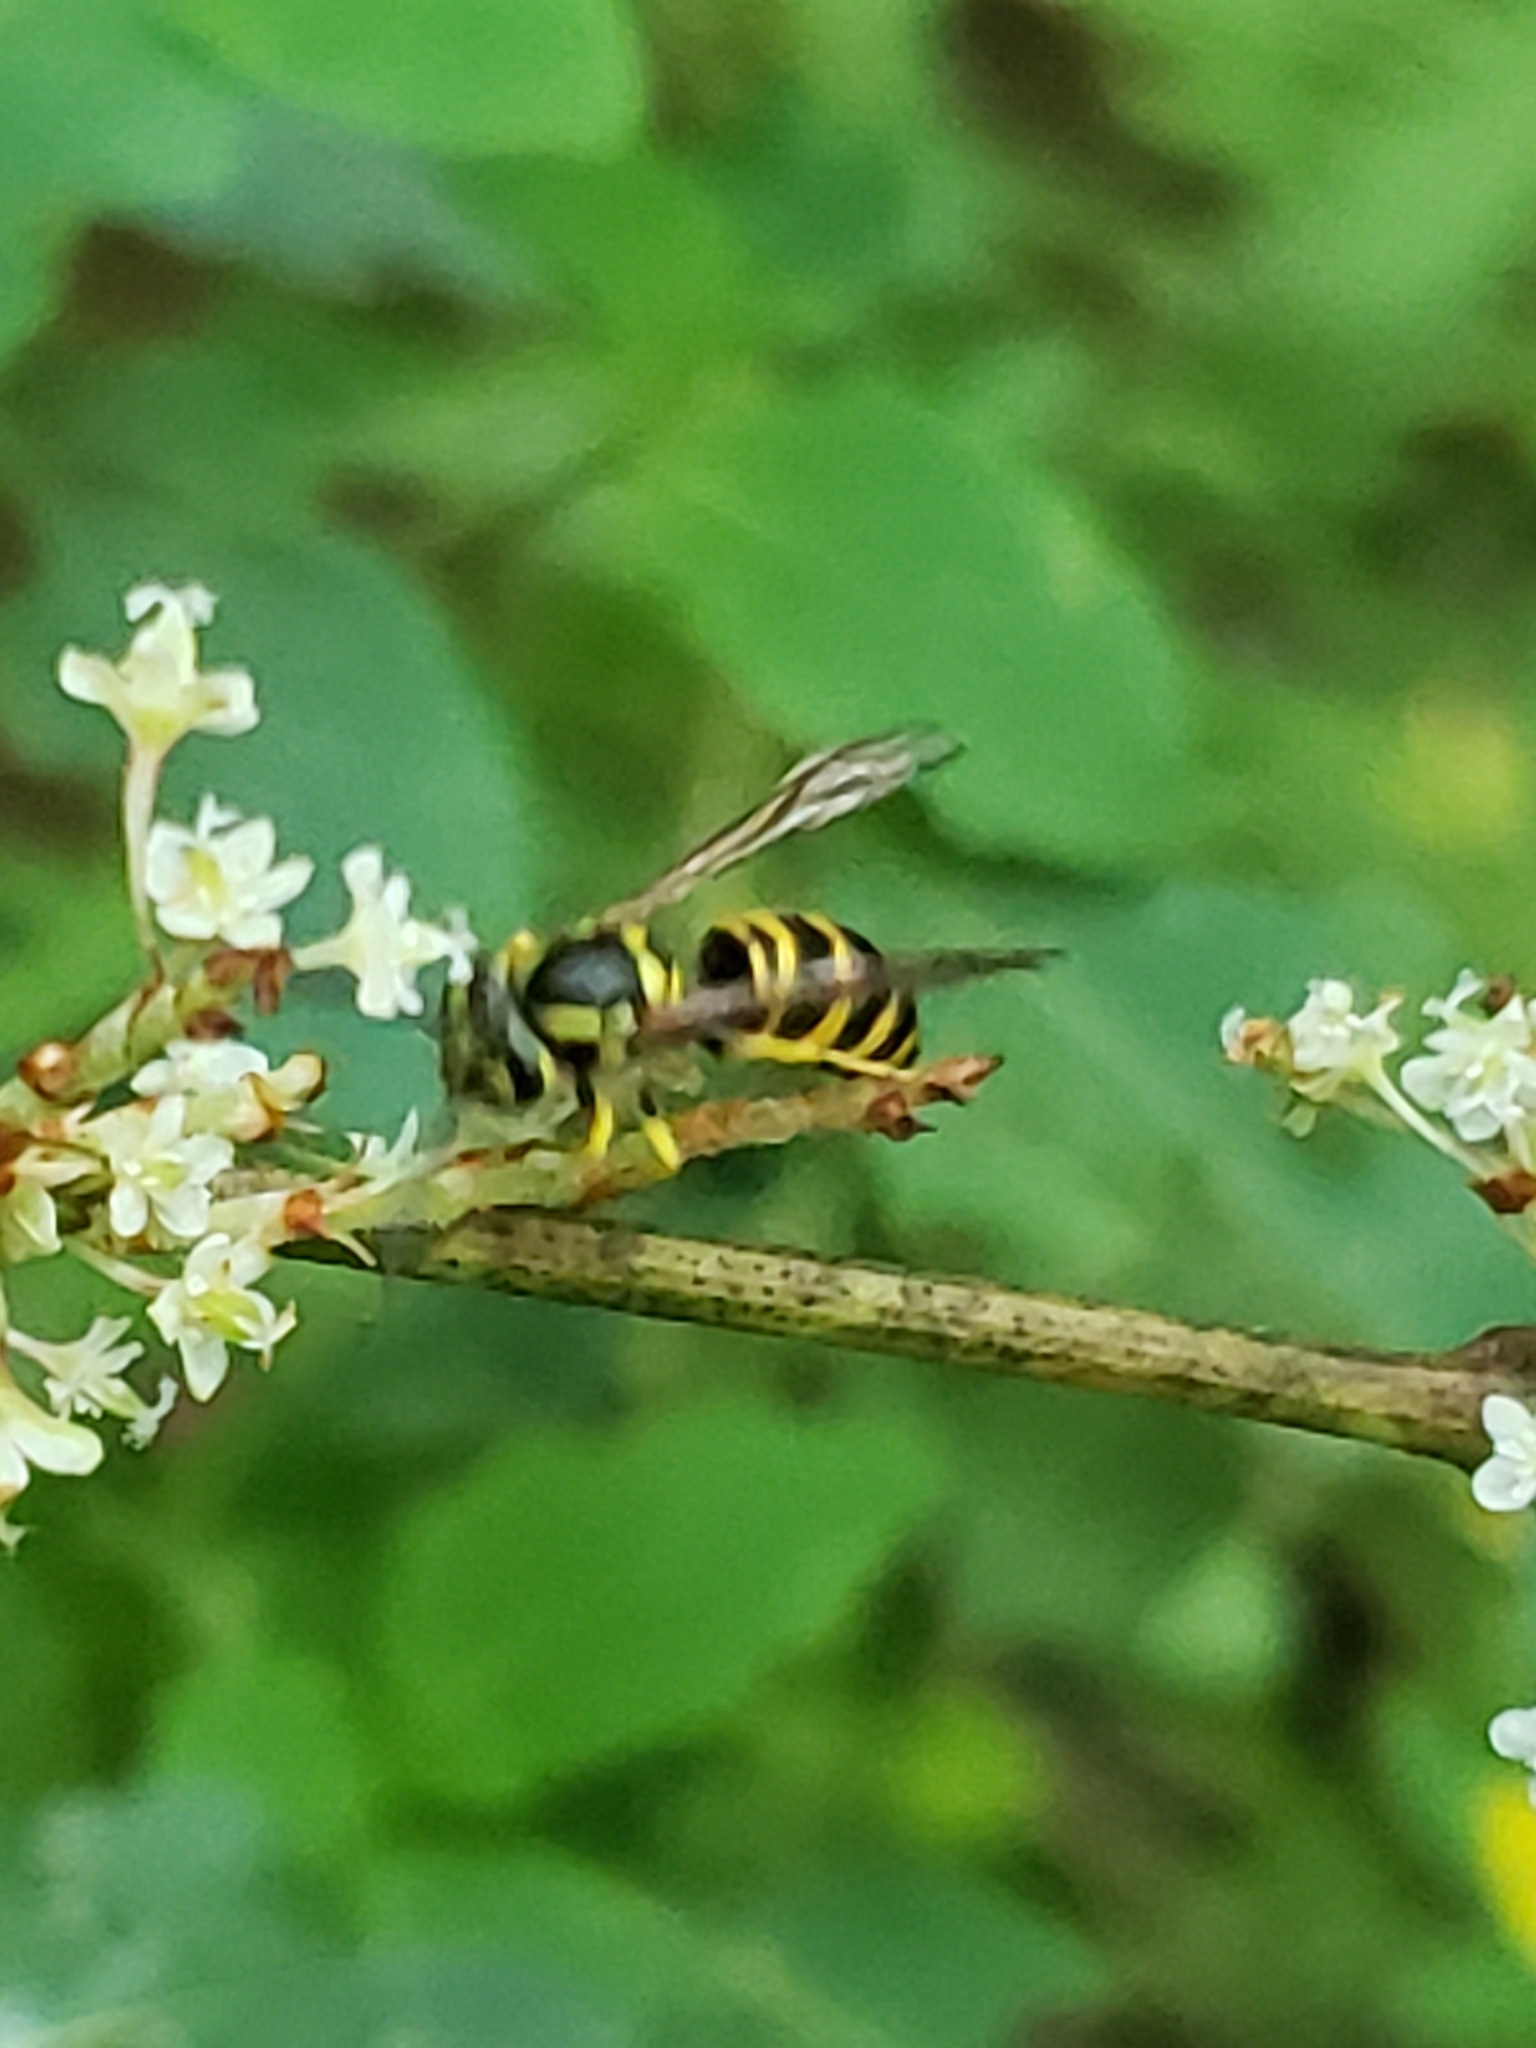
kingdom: Animalia
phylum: Arthropoda
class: Insecta
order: Hymenoptera
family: Vespidae
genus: Vespula
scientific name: Vespula maculifrons
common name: Eastern yellowjacket
